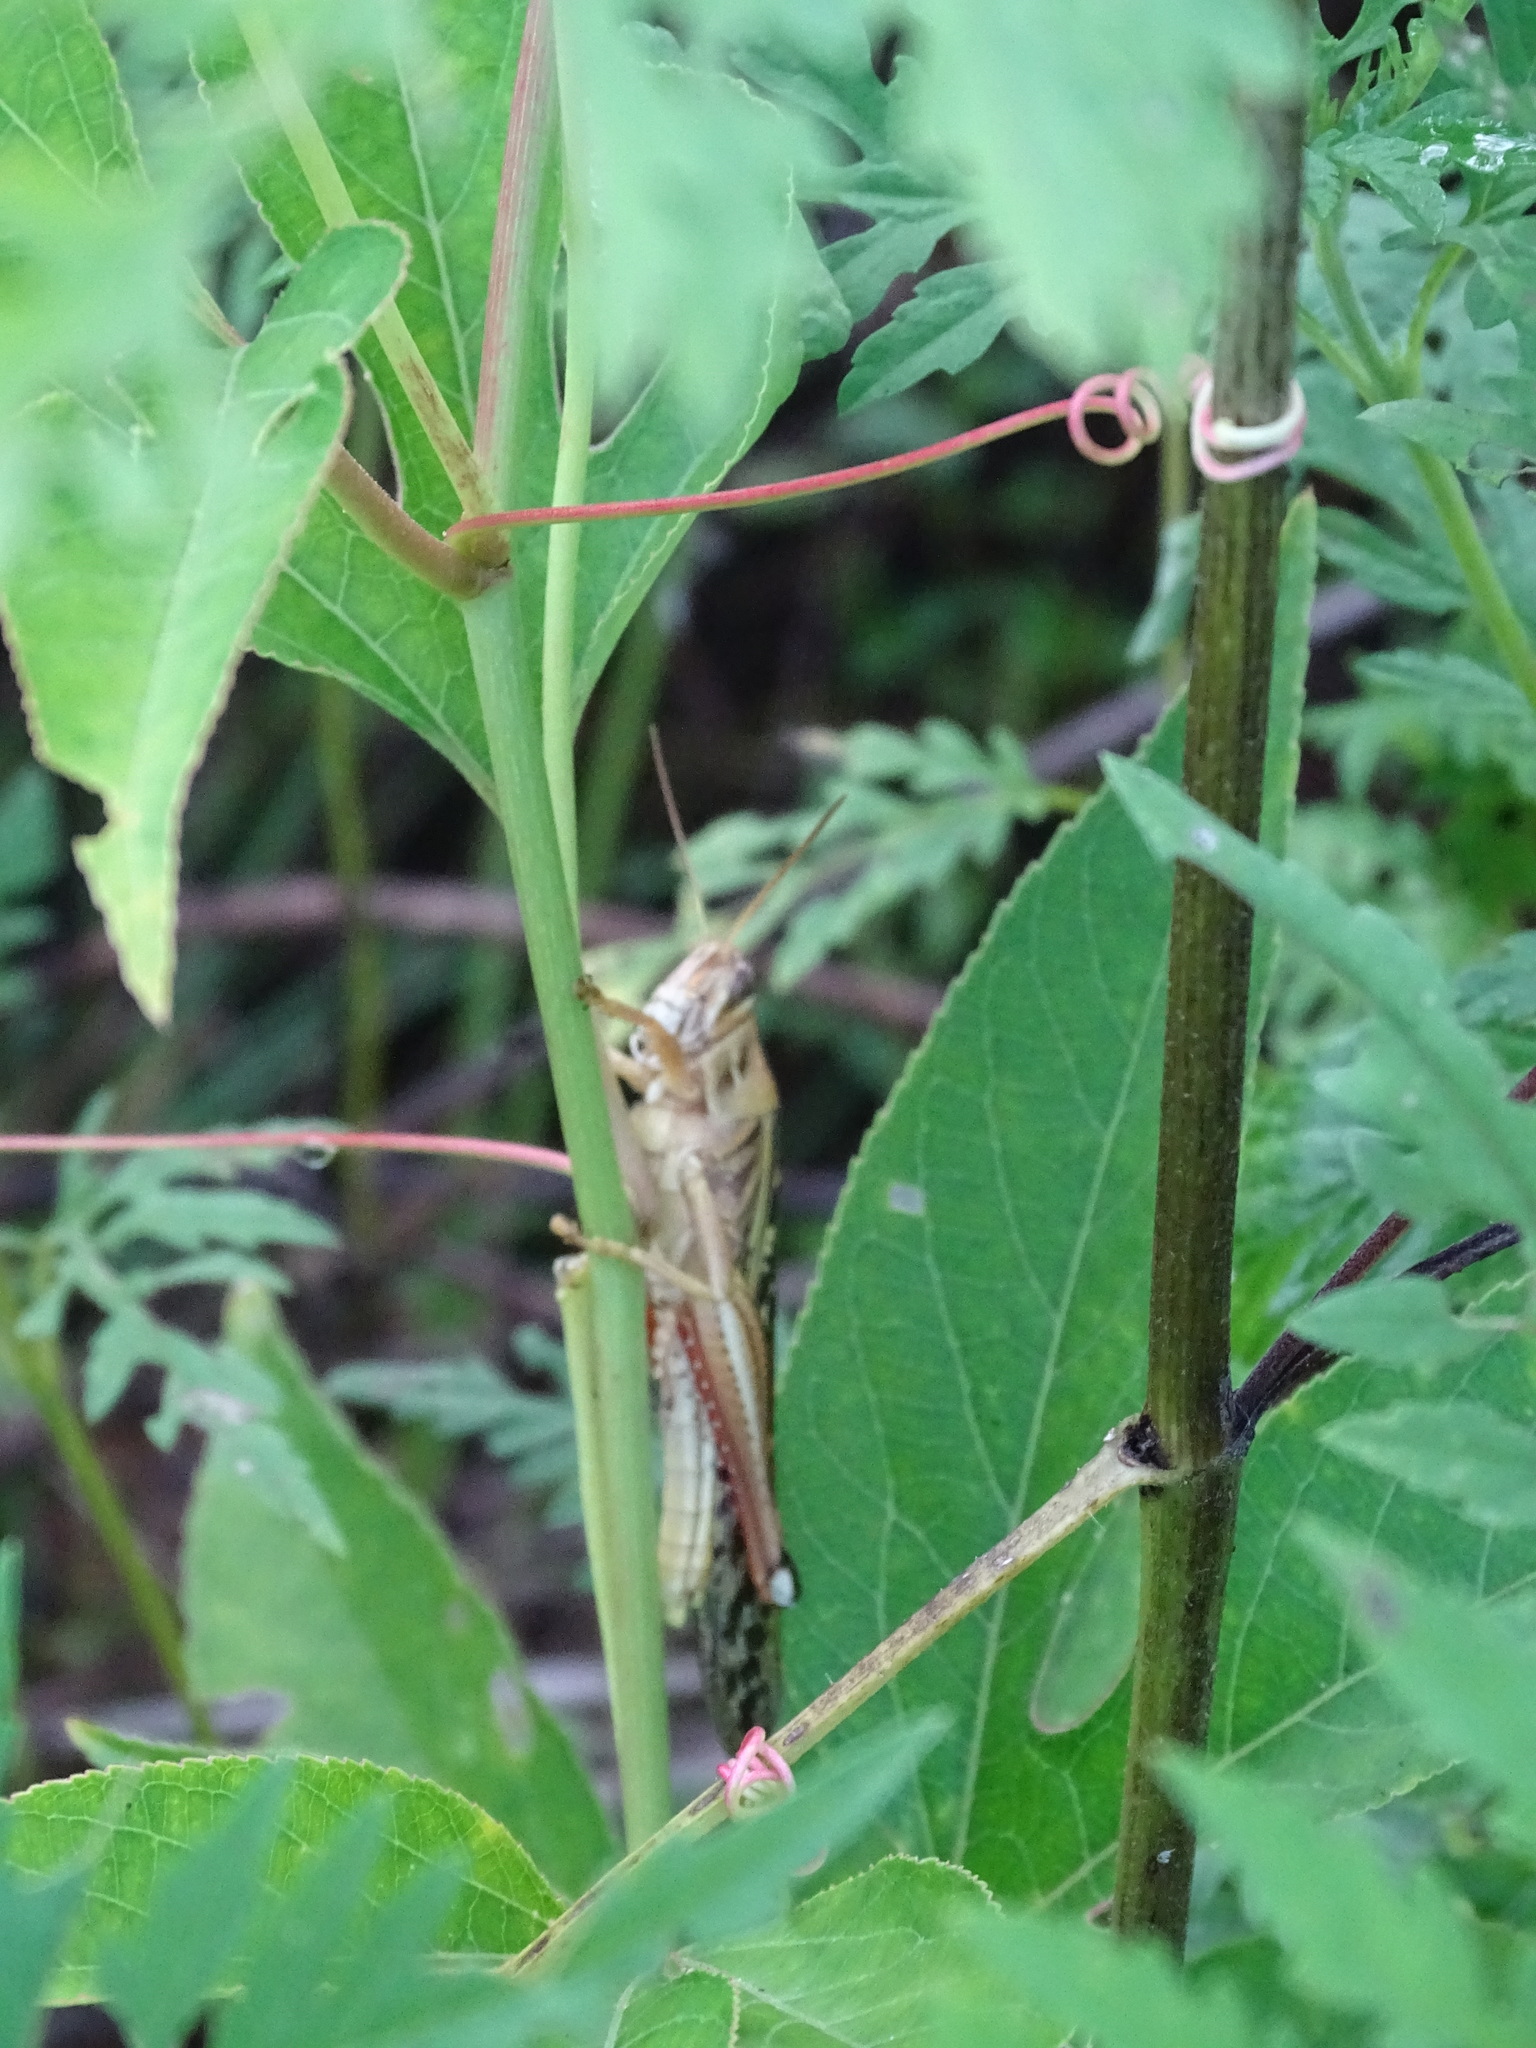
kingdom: Animalia
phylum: Arthropoda
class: Insecta
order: Orthoptera
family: Acrididae
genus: Schistocerca
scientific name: Schistocerca americana
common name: American bird locust
